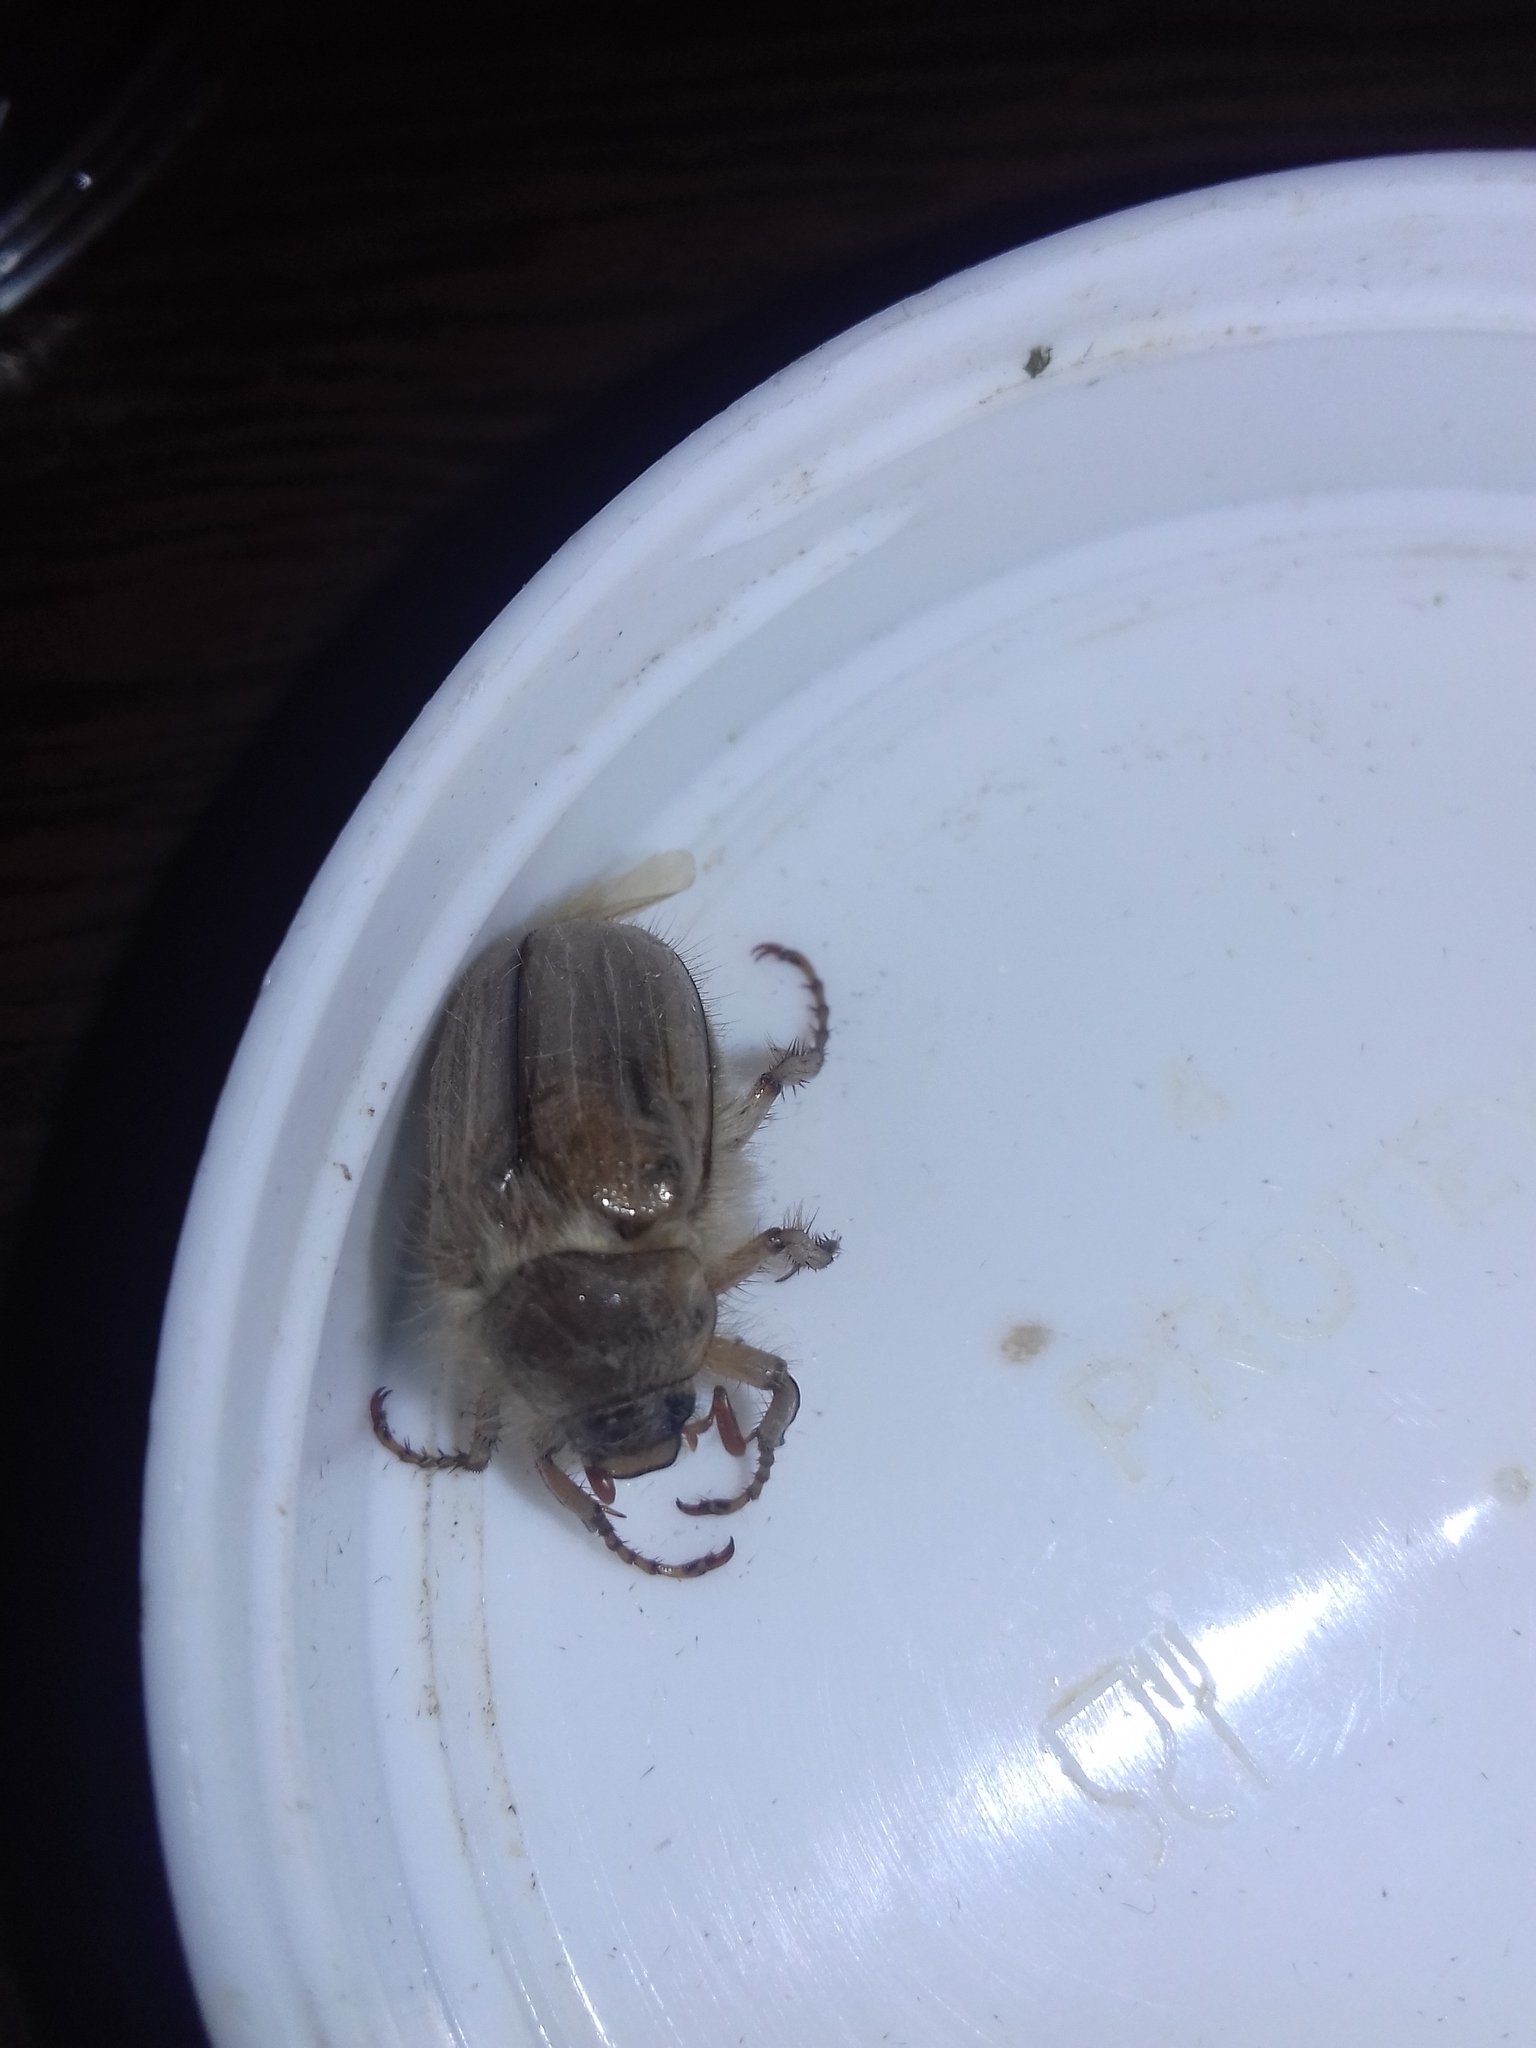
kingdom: Animalia
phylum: Arthropoda
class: Insecta
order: Coleoptera
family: Scarabaeidae
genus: Amphimallon
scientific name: Amphimallon solstitiale
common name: Summer chafer
